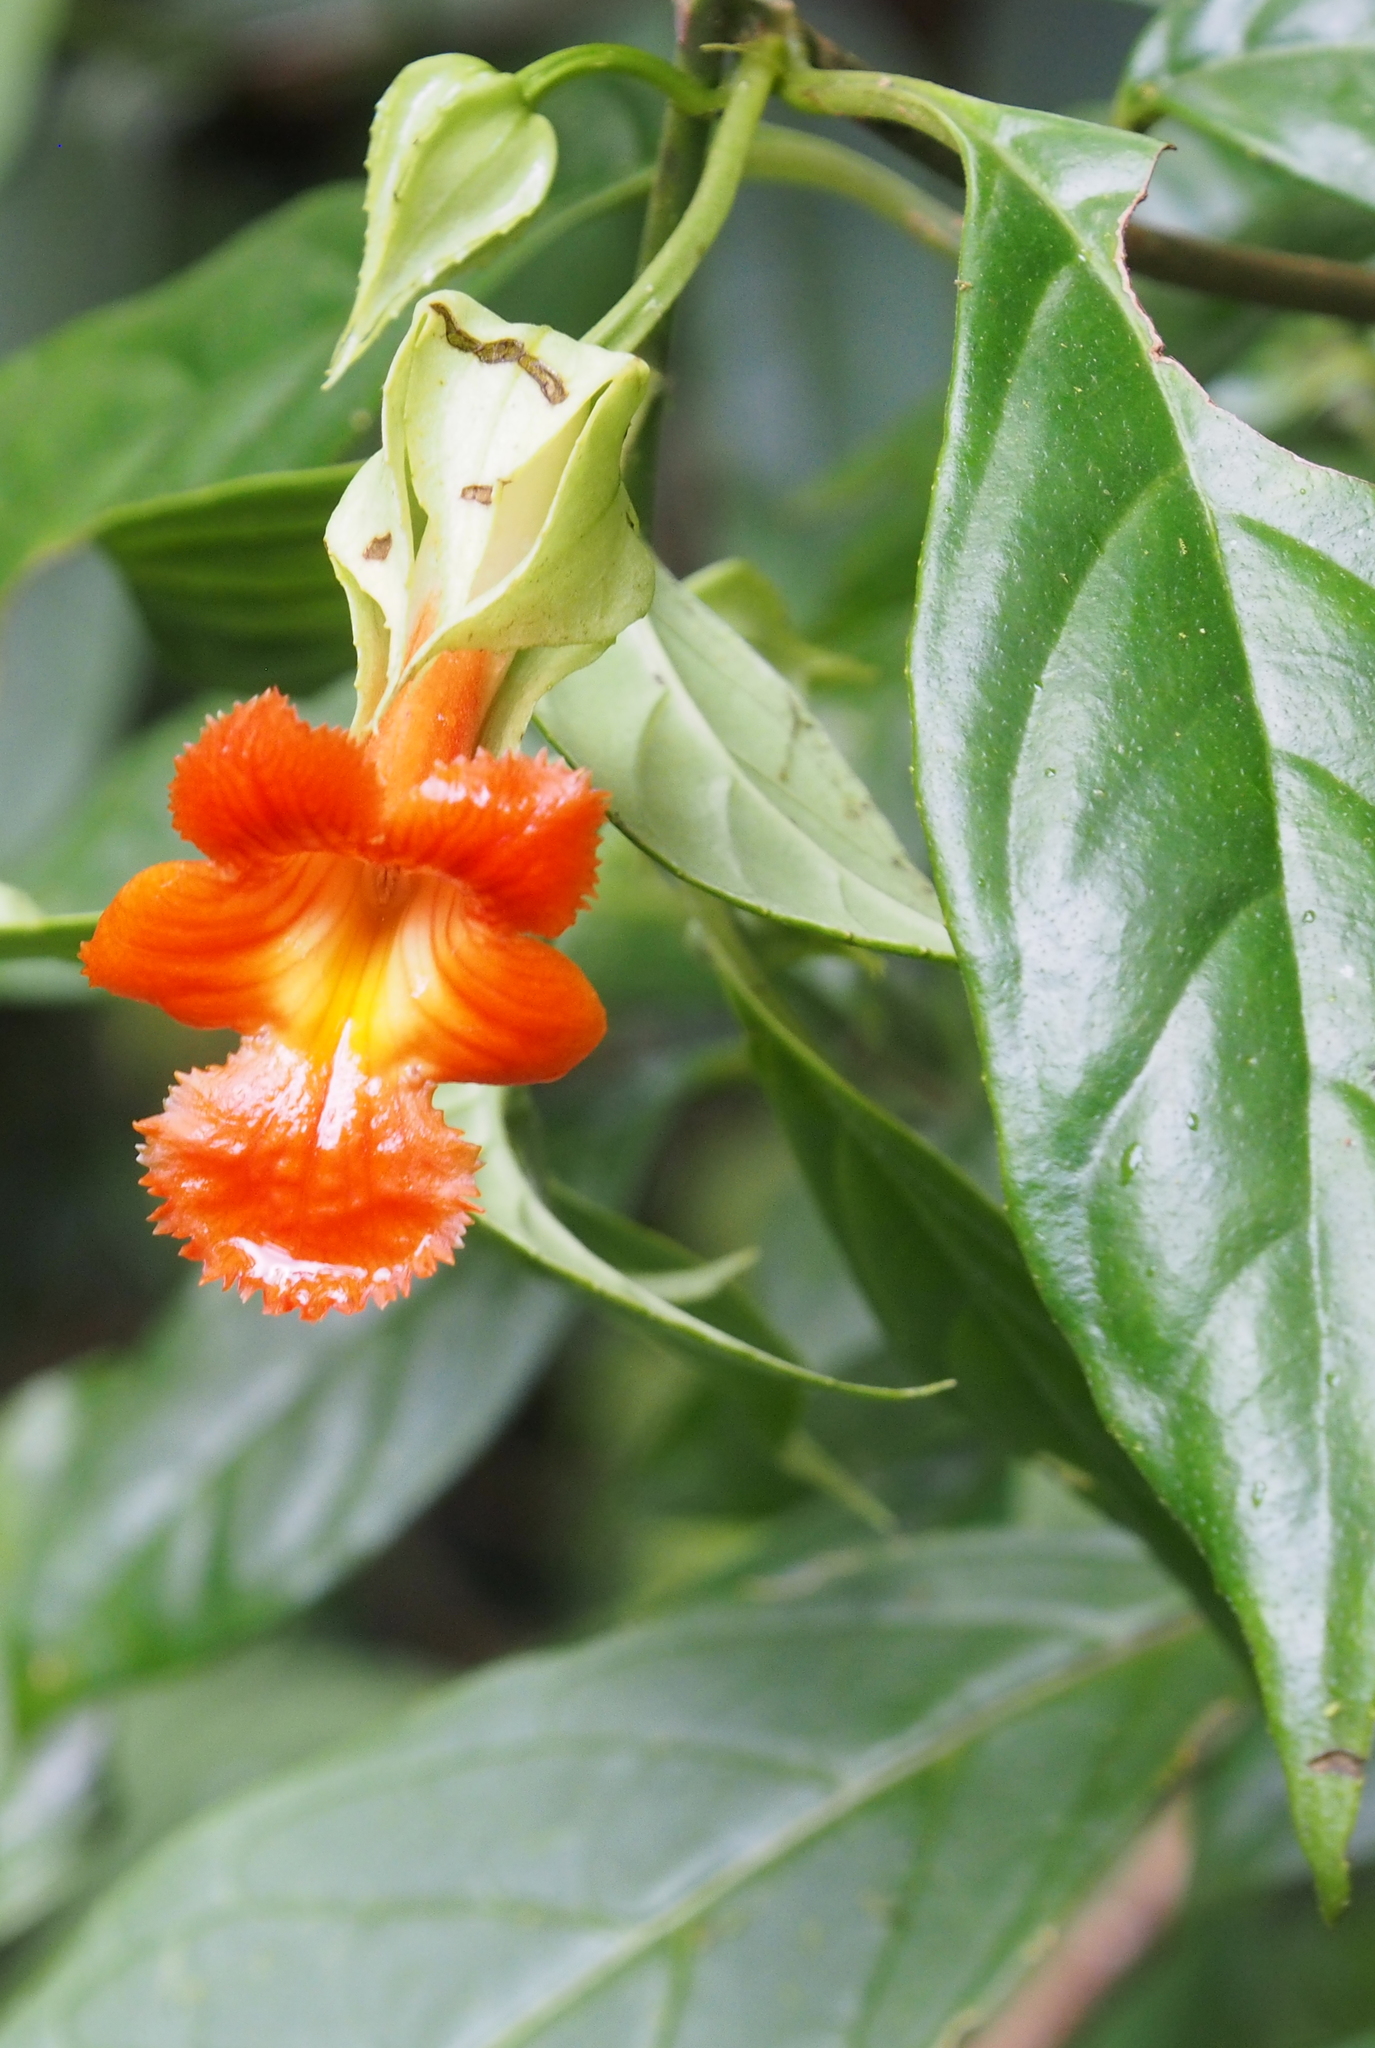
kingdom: Plantae
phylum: Tracheophyta
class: Magnoliopsida
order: Lamiales
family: Gesneriaceae
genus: Drymonia
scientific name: Drymonia rubra
